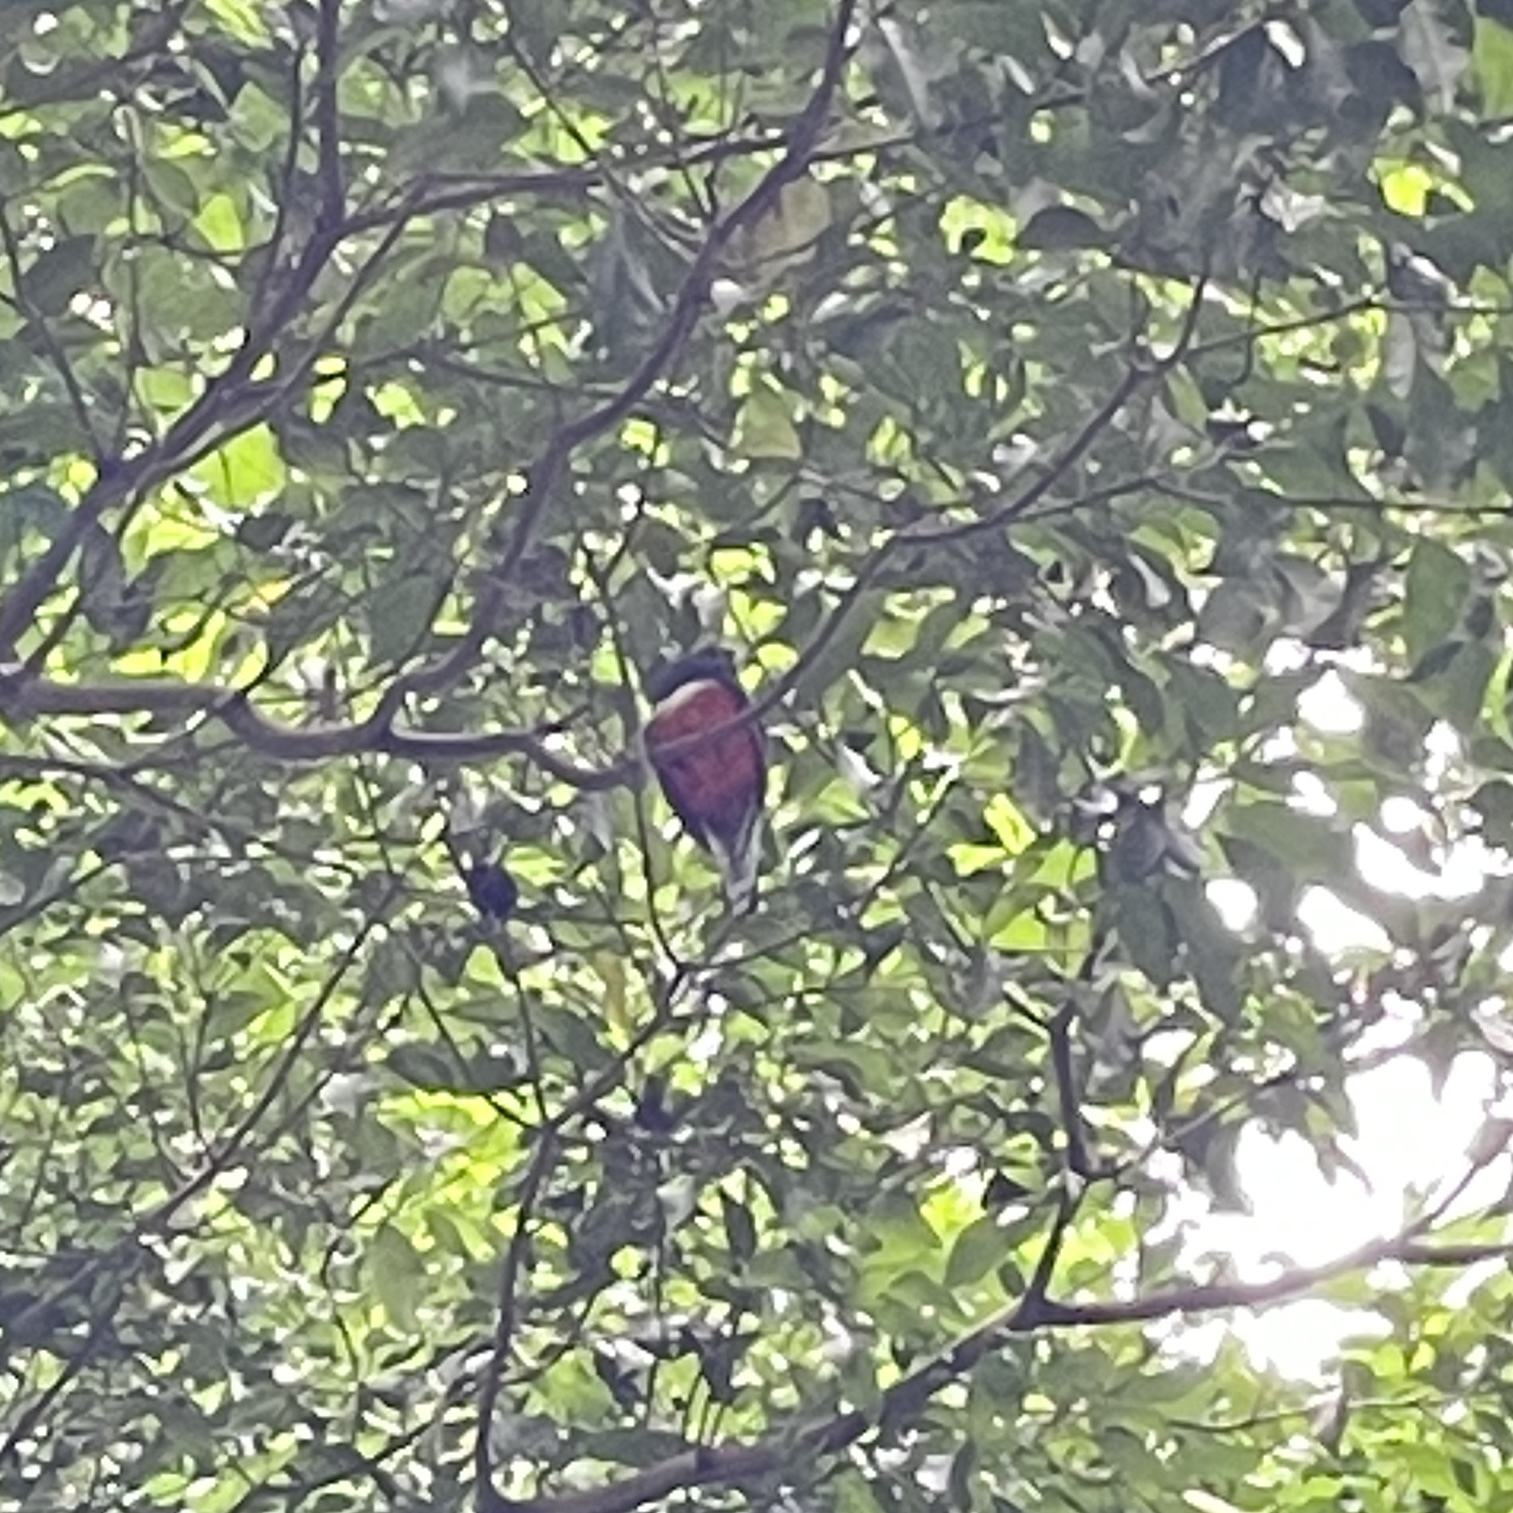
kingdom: Animalia
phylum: Chordata
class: Aves
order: Trogoniformes
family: Trogonidae
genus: Trogon
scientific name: Trogon collaris
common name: Collared trogon
